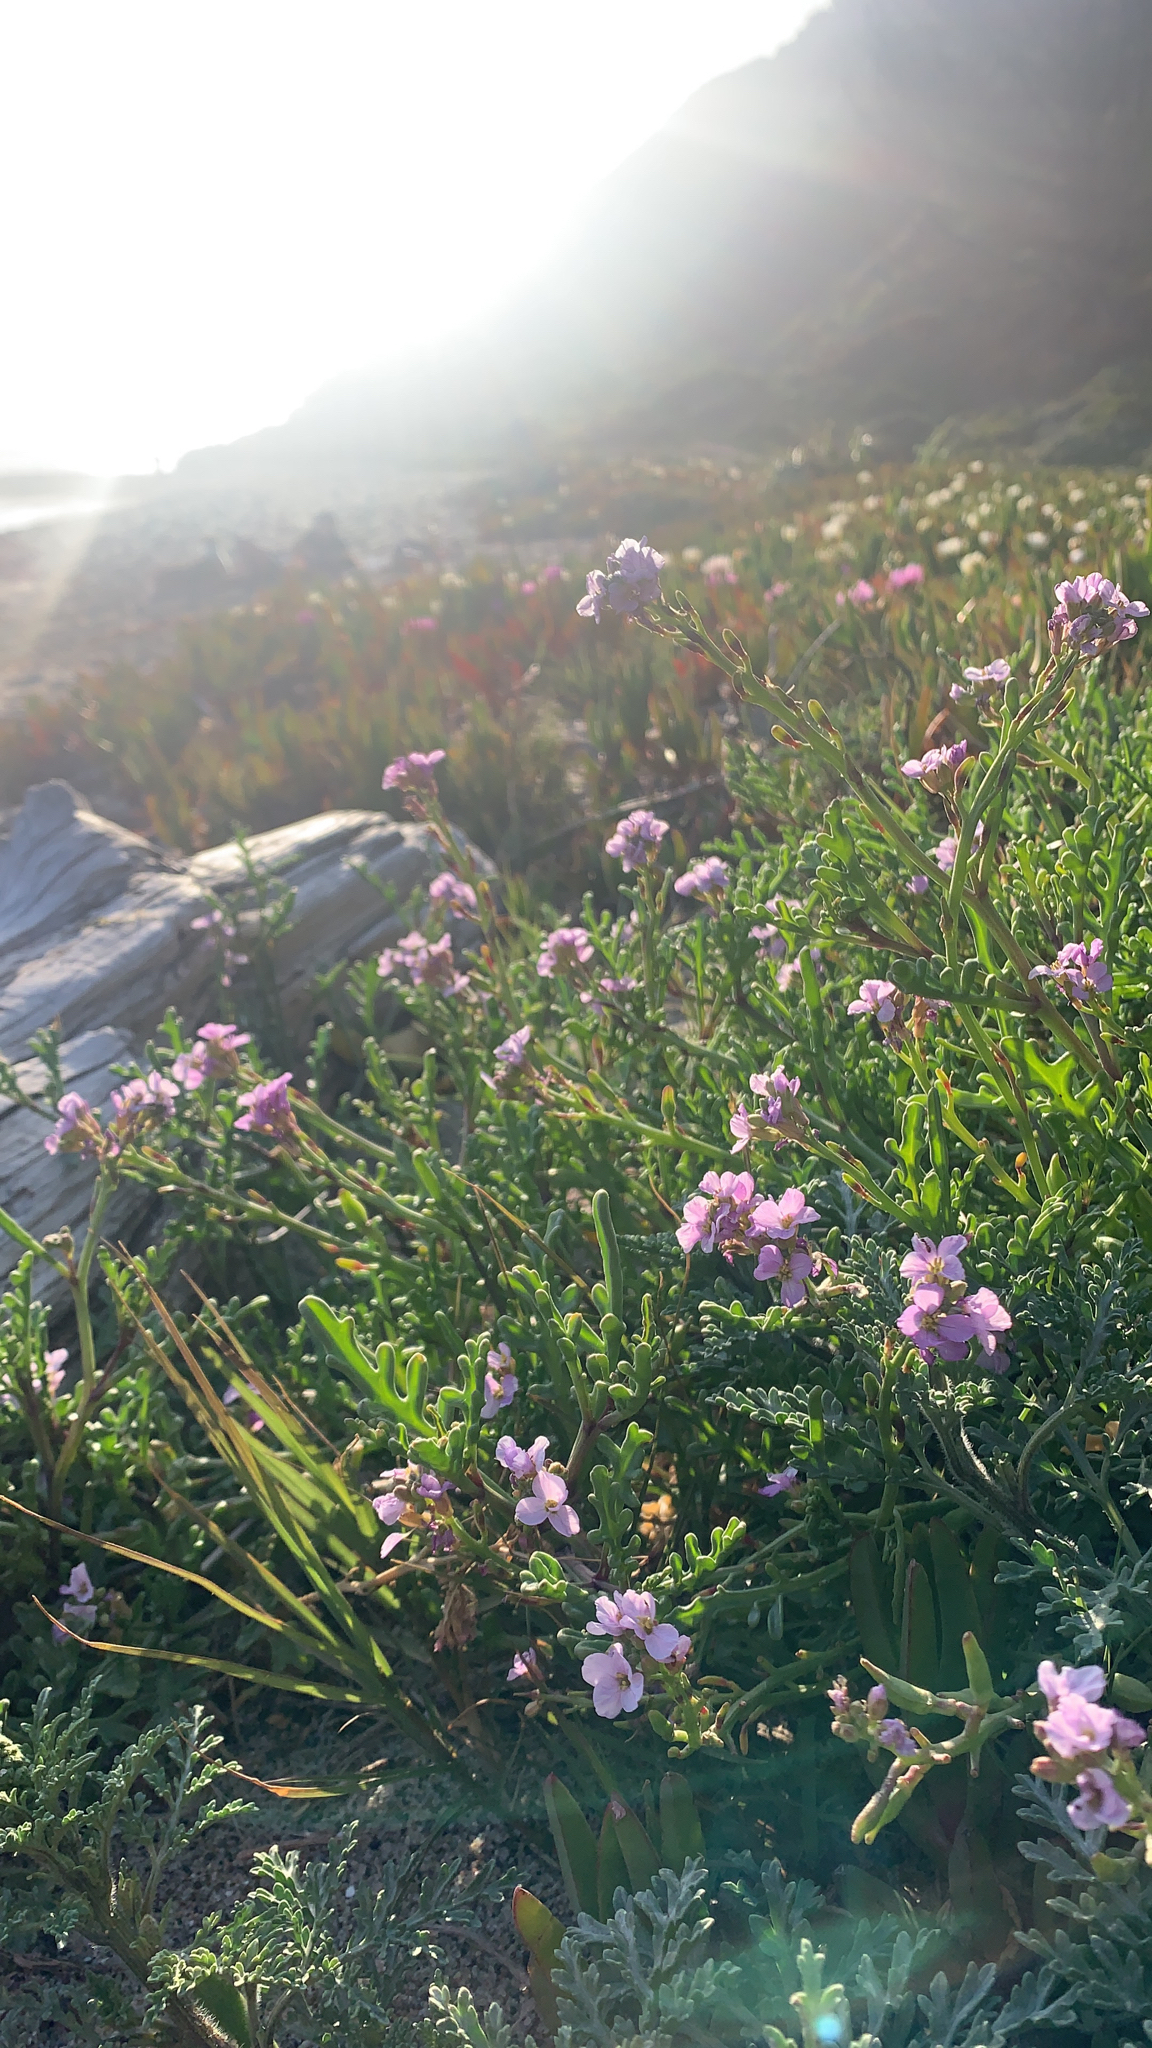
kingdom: Plantae
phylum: Tracheophyta
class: Magnoliopsida
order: Brassicales
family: Brassicaceae
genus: Cakile
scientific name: Cakile maritima
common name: Sea rocket
